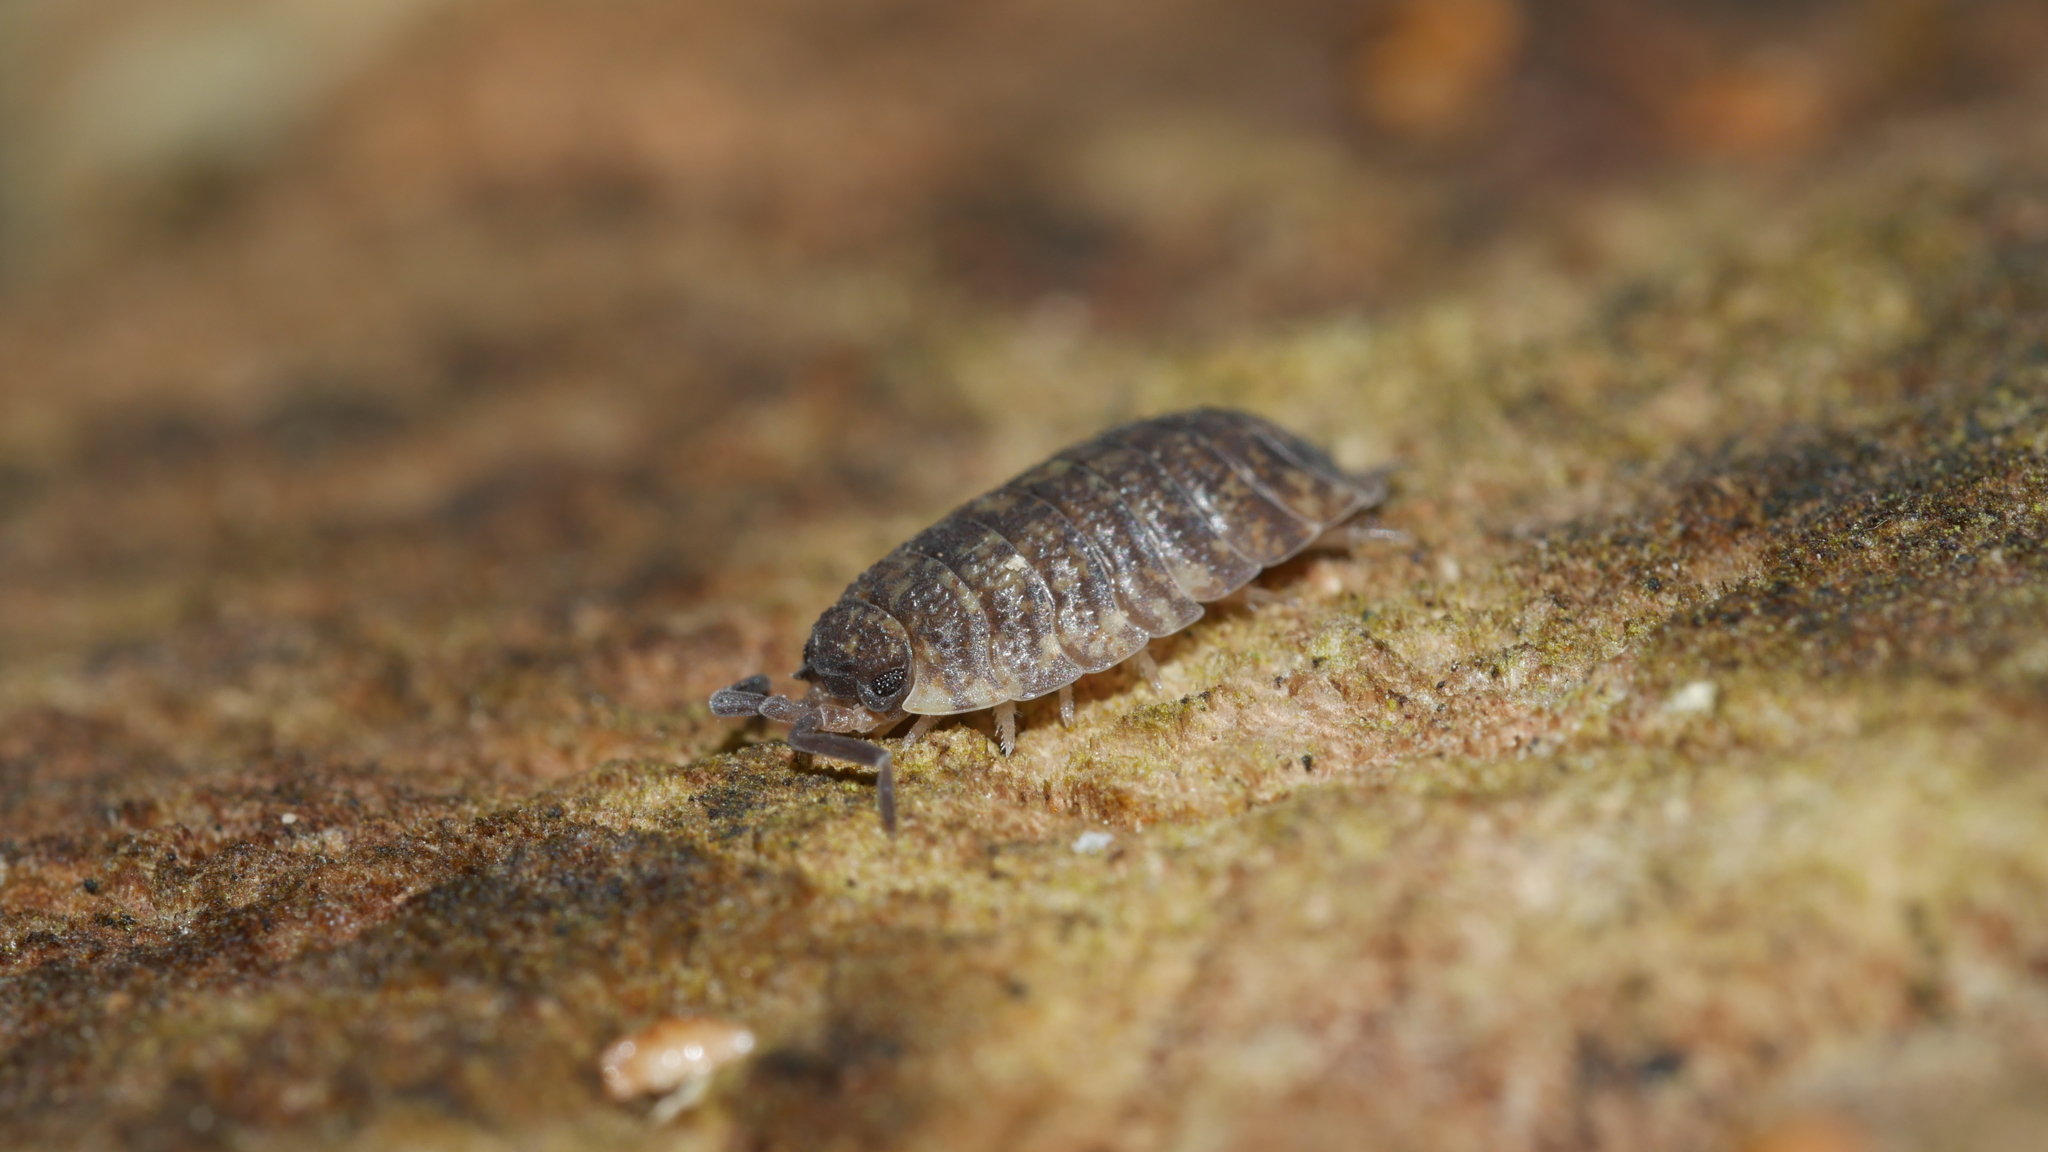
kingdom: Animalia
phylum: Arthropoda
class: Malacostraca
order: Isopoda
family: Porcellionidae
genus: Porcellio
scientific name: Porcellio scaber
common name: Common rough woodlouse
